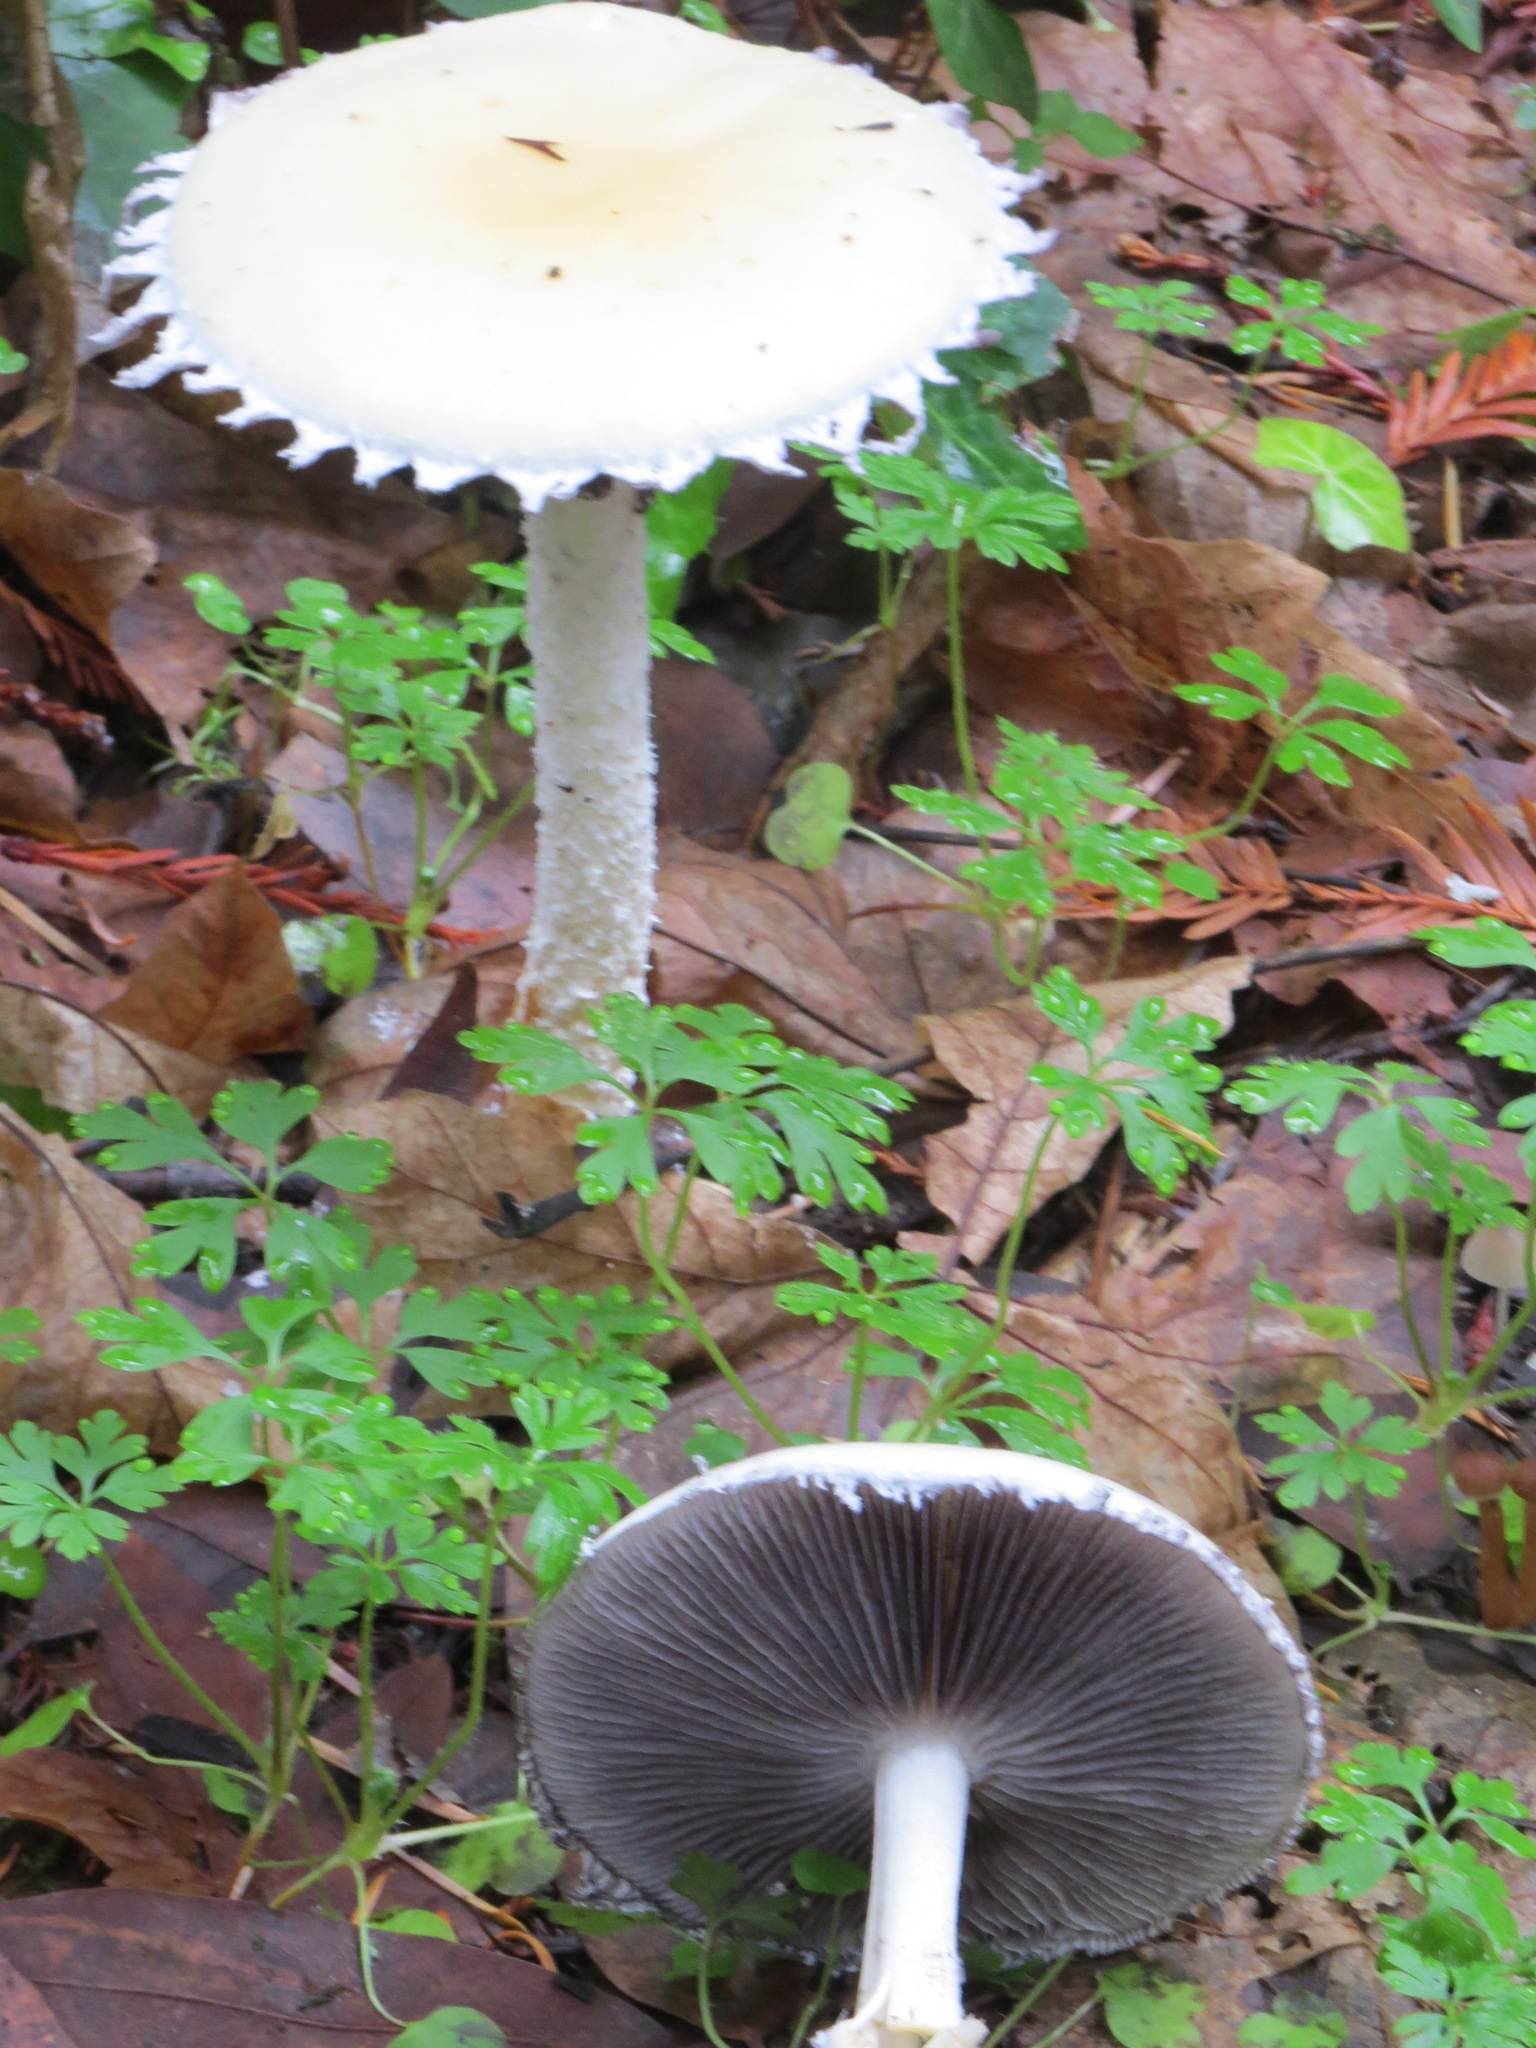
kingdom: Fungi
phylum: Basidiomycota
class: Agaricomycetes
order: Agaricales
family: Strophariaceae
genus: Stropharia
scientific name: Stropharia ambigua
